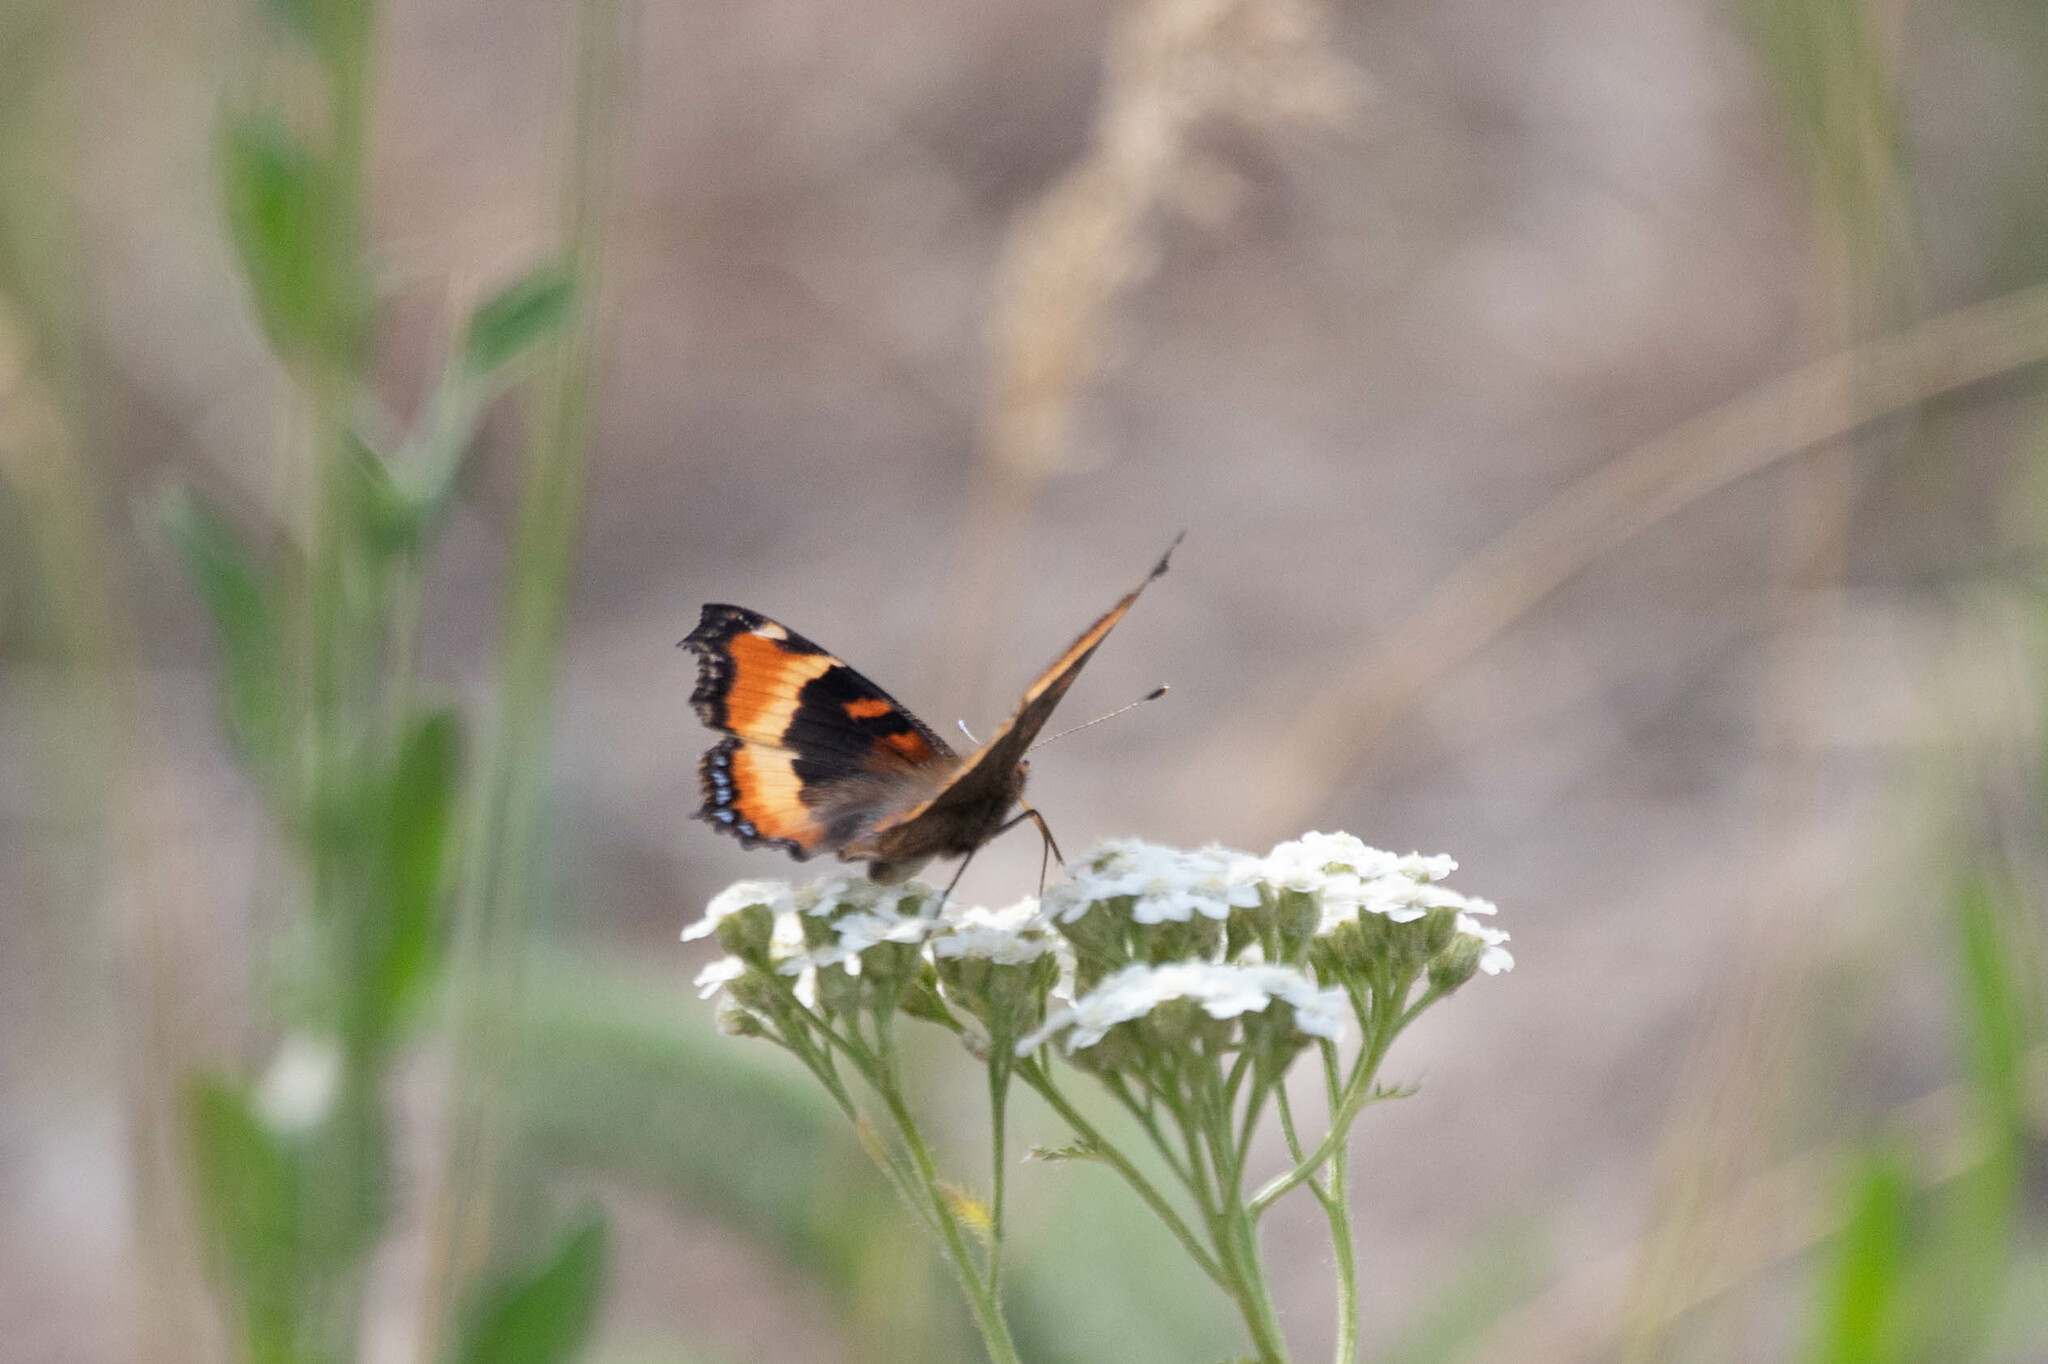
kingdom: Animalia
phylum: Arthropoda
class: Insecta
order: Lepidoptera
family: Nymphalidae
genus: Aglais
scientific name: Aglais milberti
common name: Milbert's tortoiseshell
